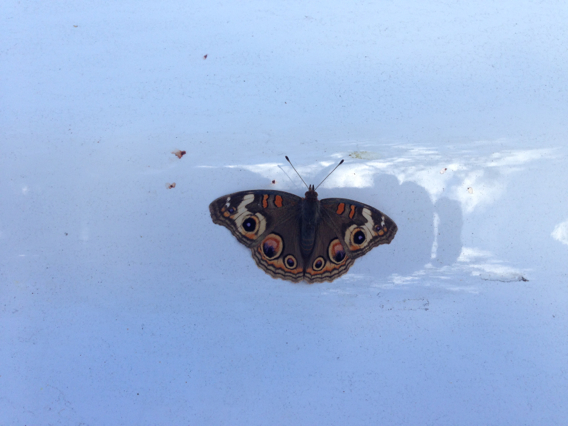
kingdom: Animalia
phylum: Arthropoda
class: Insecta
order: Lepidoptera
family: Nymphalidae
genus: Junonia
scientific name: Junonia grisea
